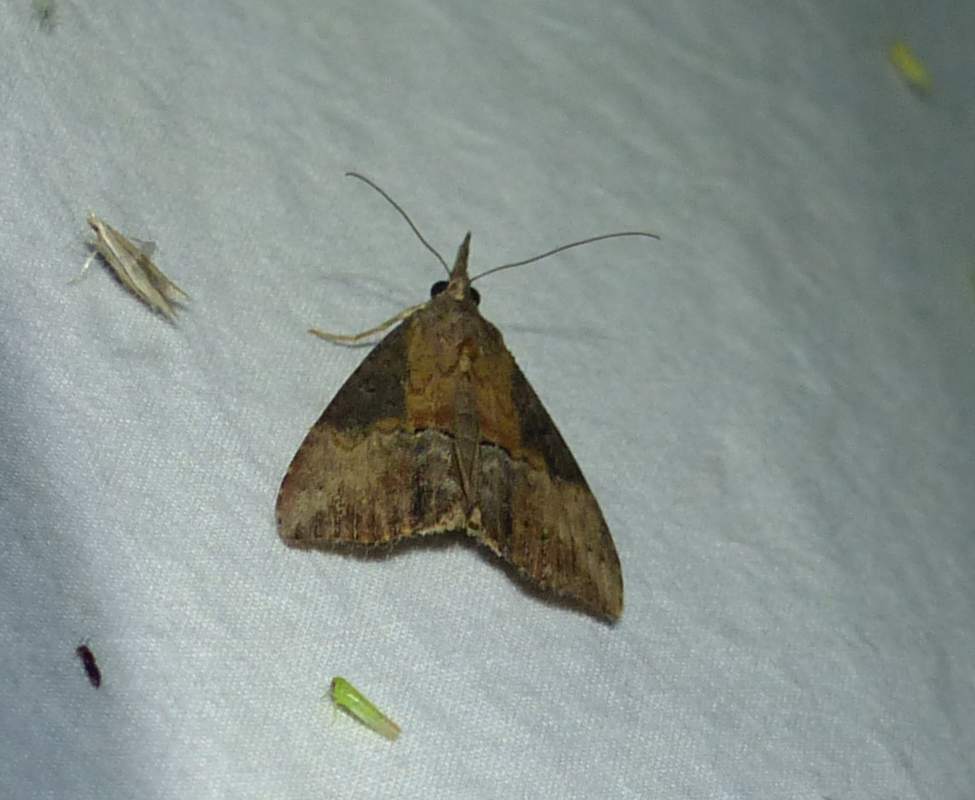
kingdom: Animalia
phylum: Arthropoda
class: Insecta
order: Lepidoptera
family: Erebidae
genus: Hypena
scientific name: Hypena scabra
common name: Green cloverworm
